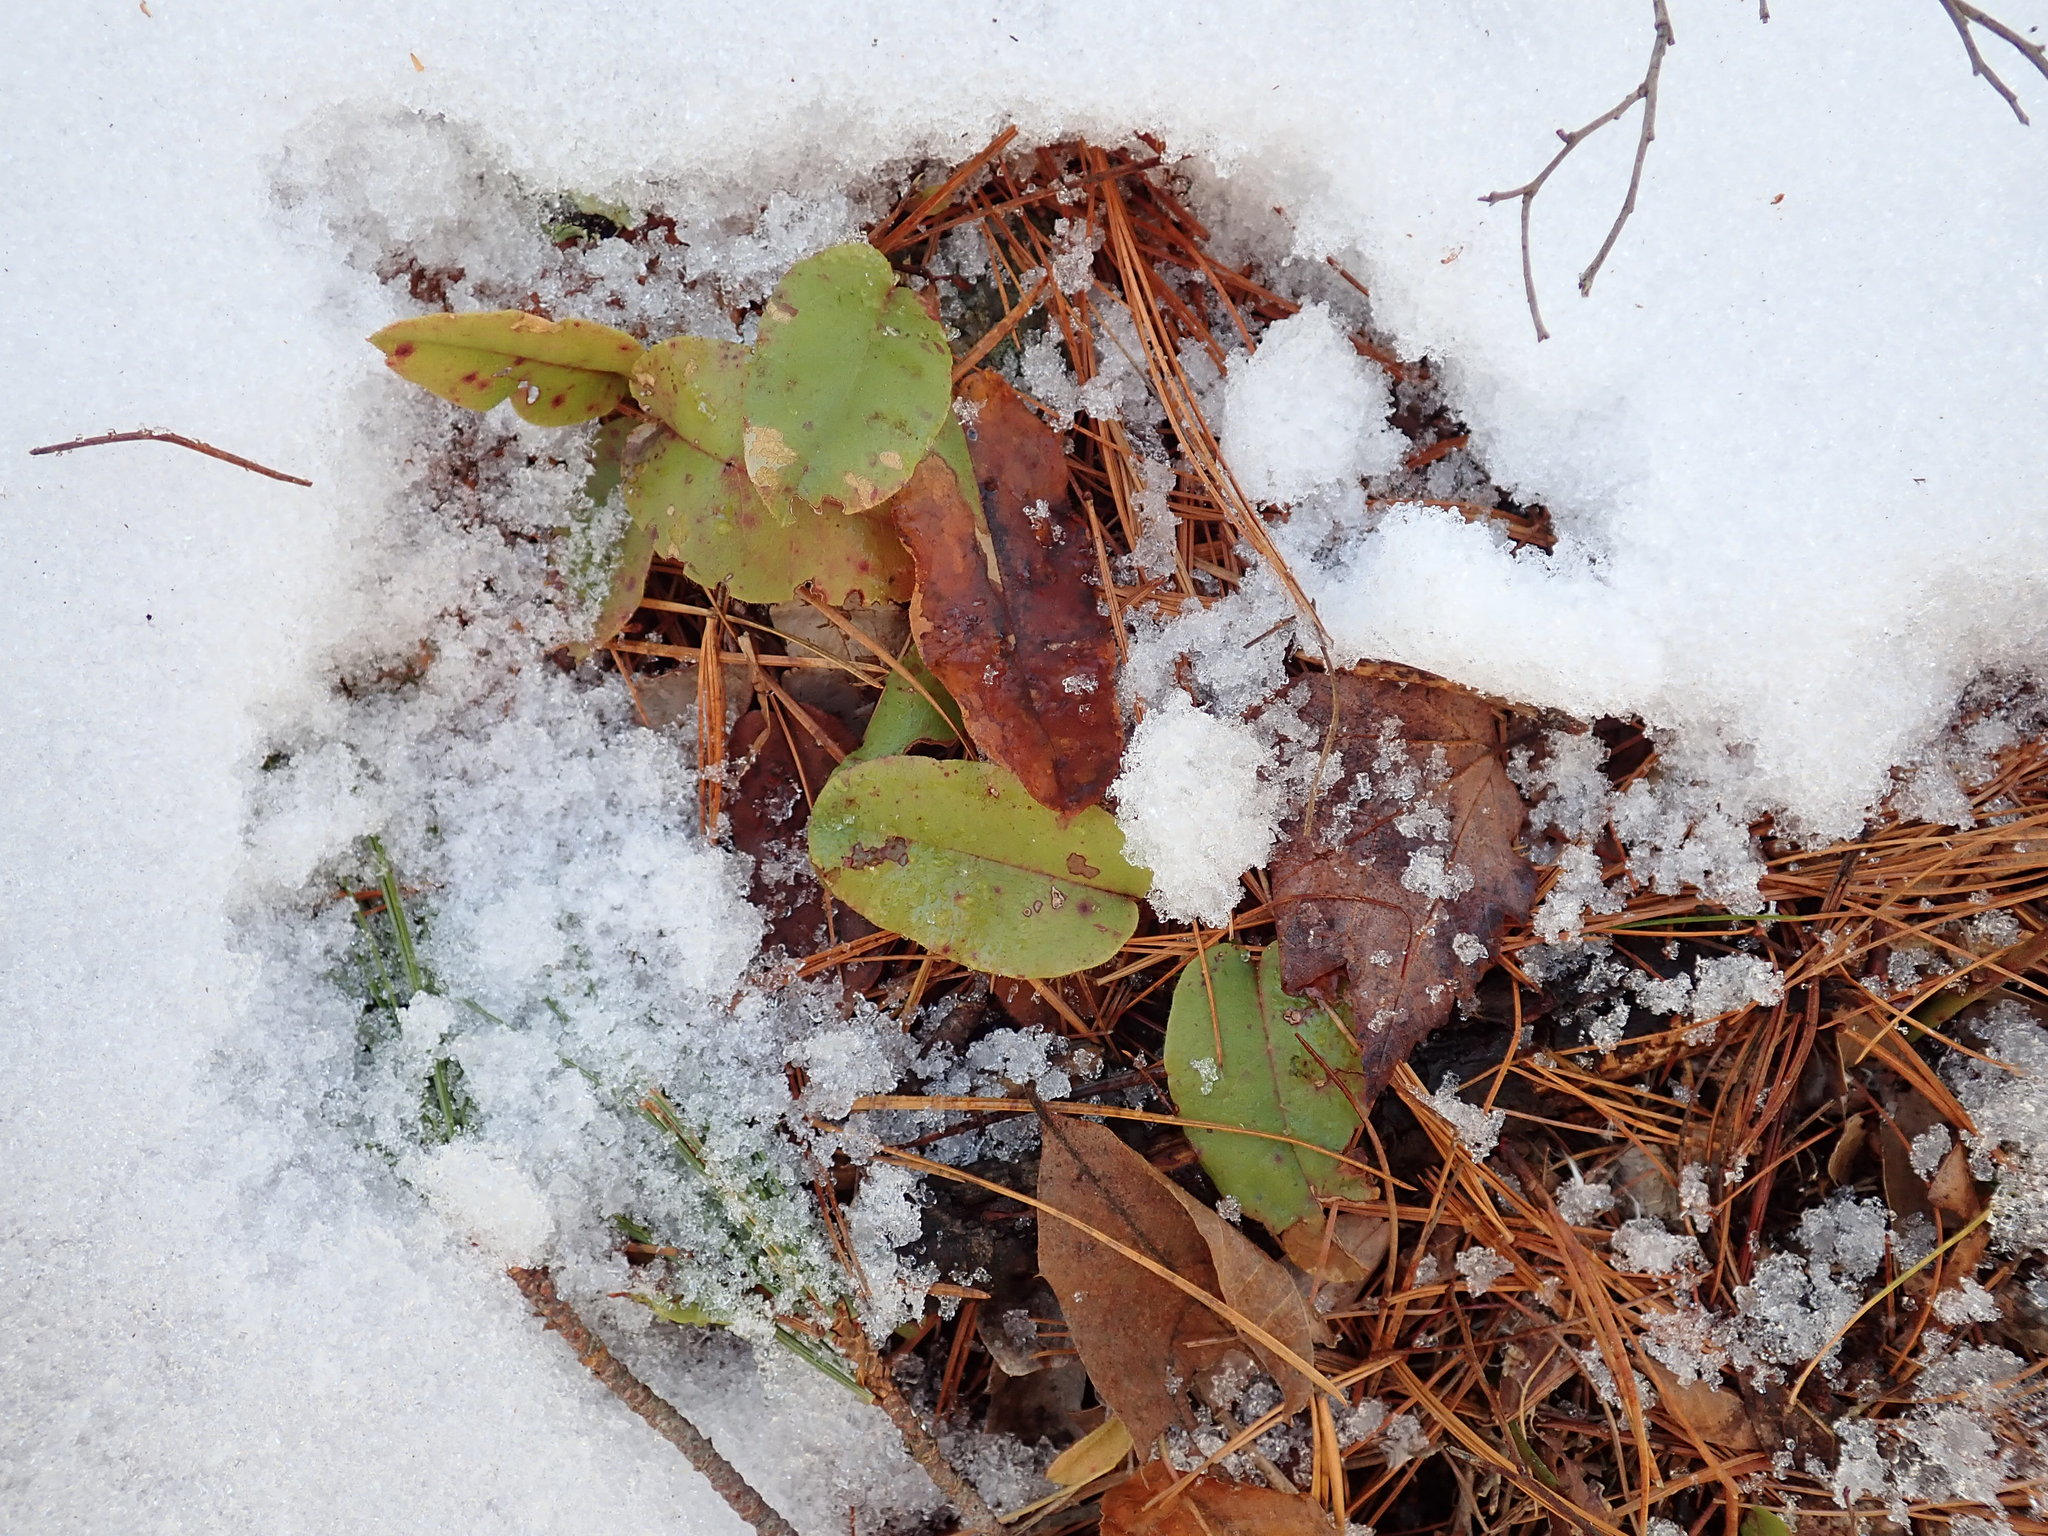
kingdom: Plantae
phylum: Tracheophyta
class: Magnoliopsida
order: Ericales
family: Ericaceae
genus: Epigaea
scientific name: Epigaea repens
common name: Gravelroot
